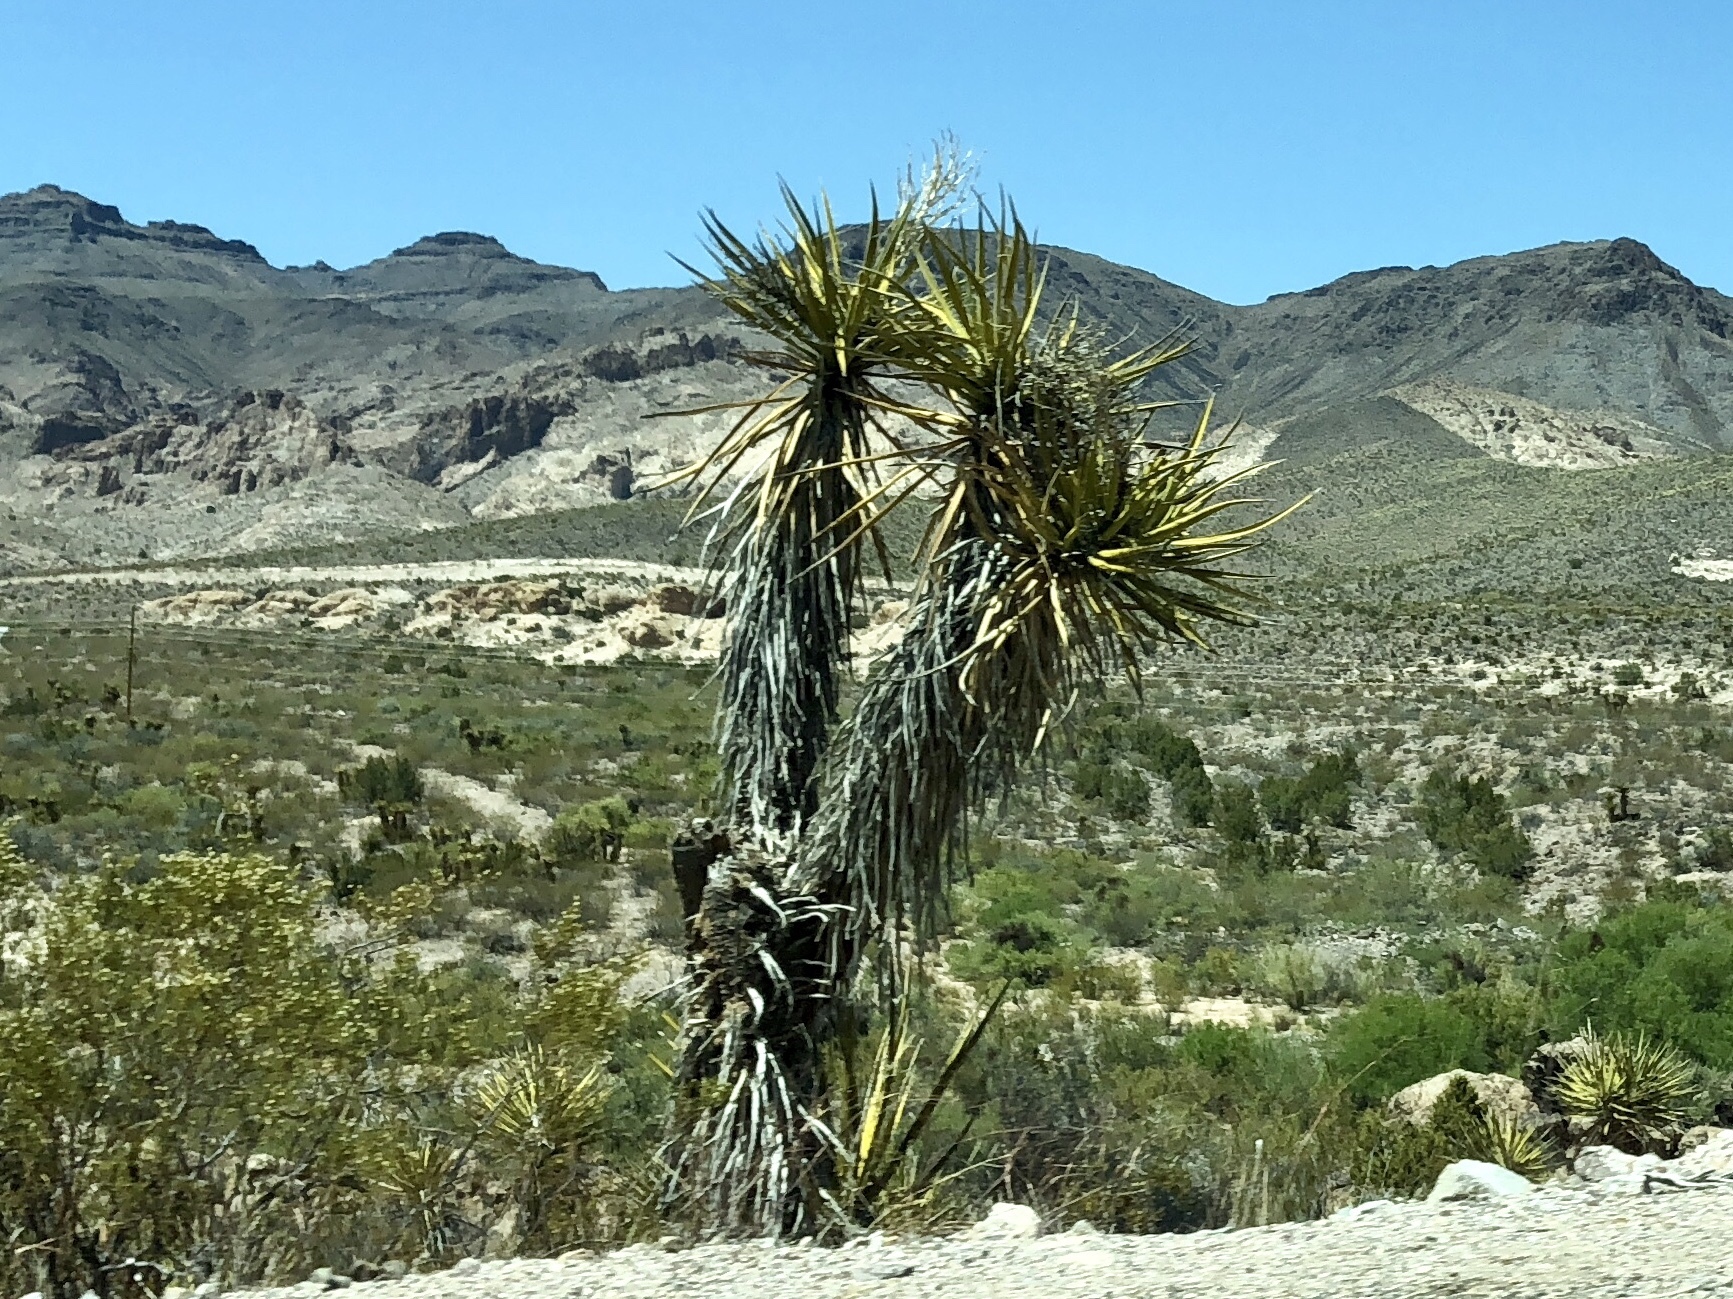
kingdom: Plantae
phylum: Tracheophyta
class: Liliopsida
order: Asparagales
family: Asparagaceae
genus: Yucca
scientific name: Yucca schidigera
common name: Mojave yucca
